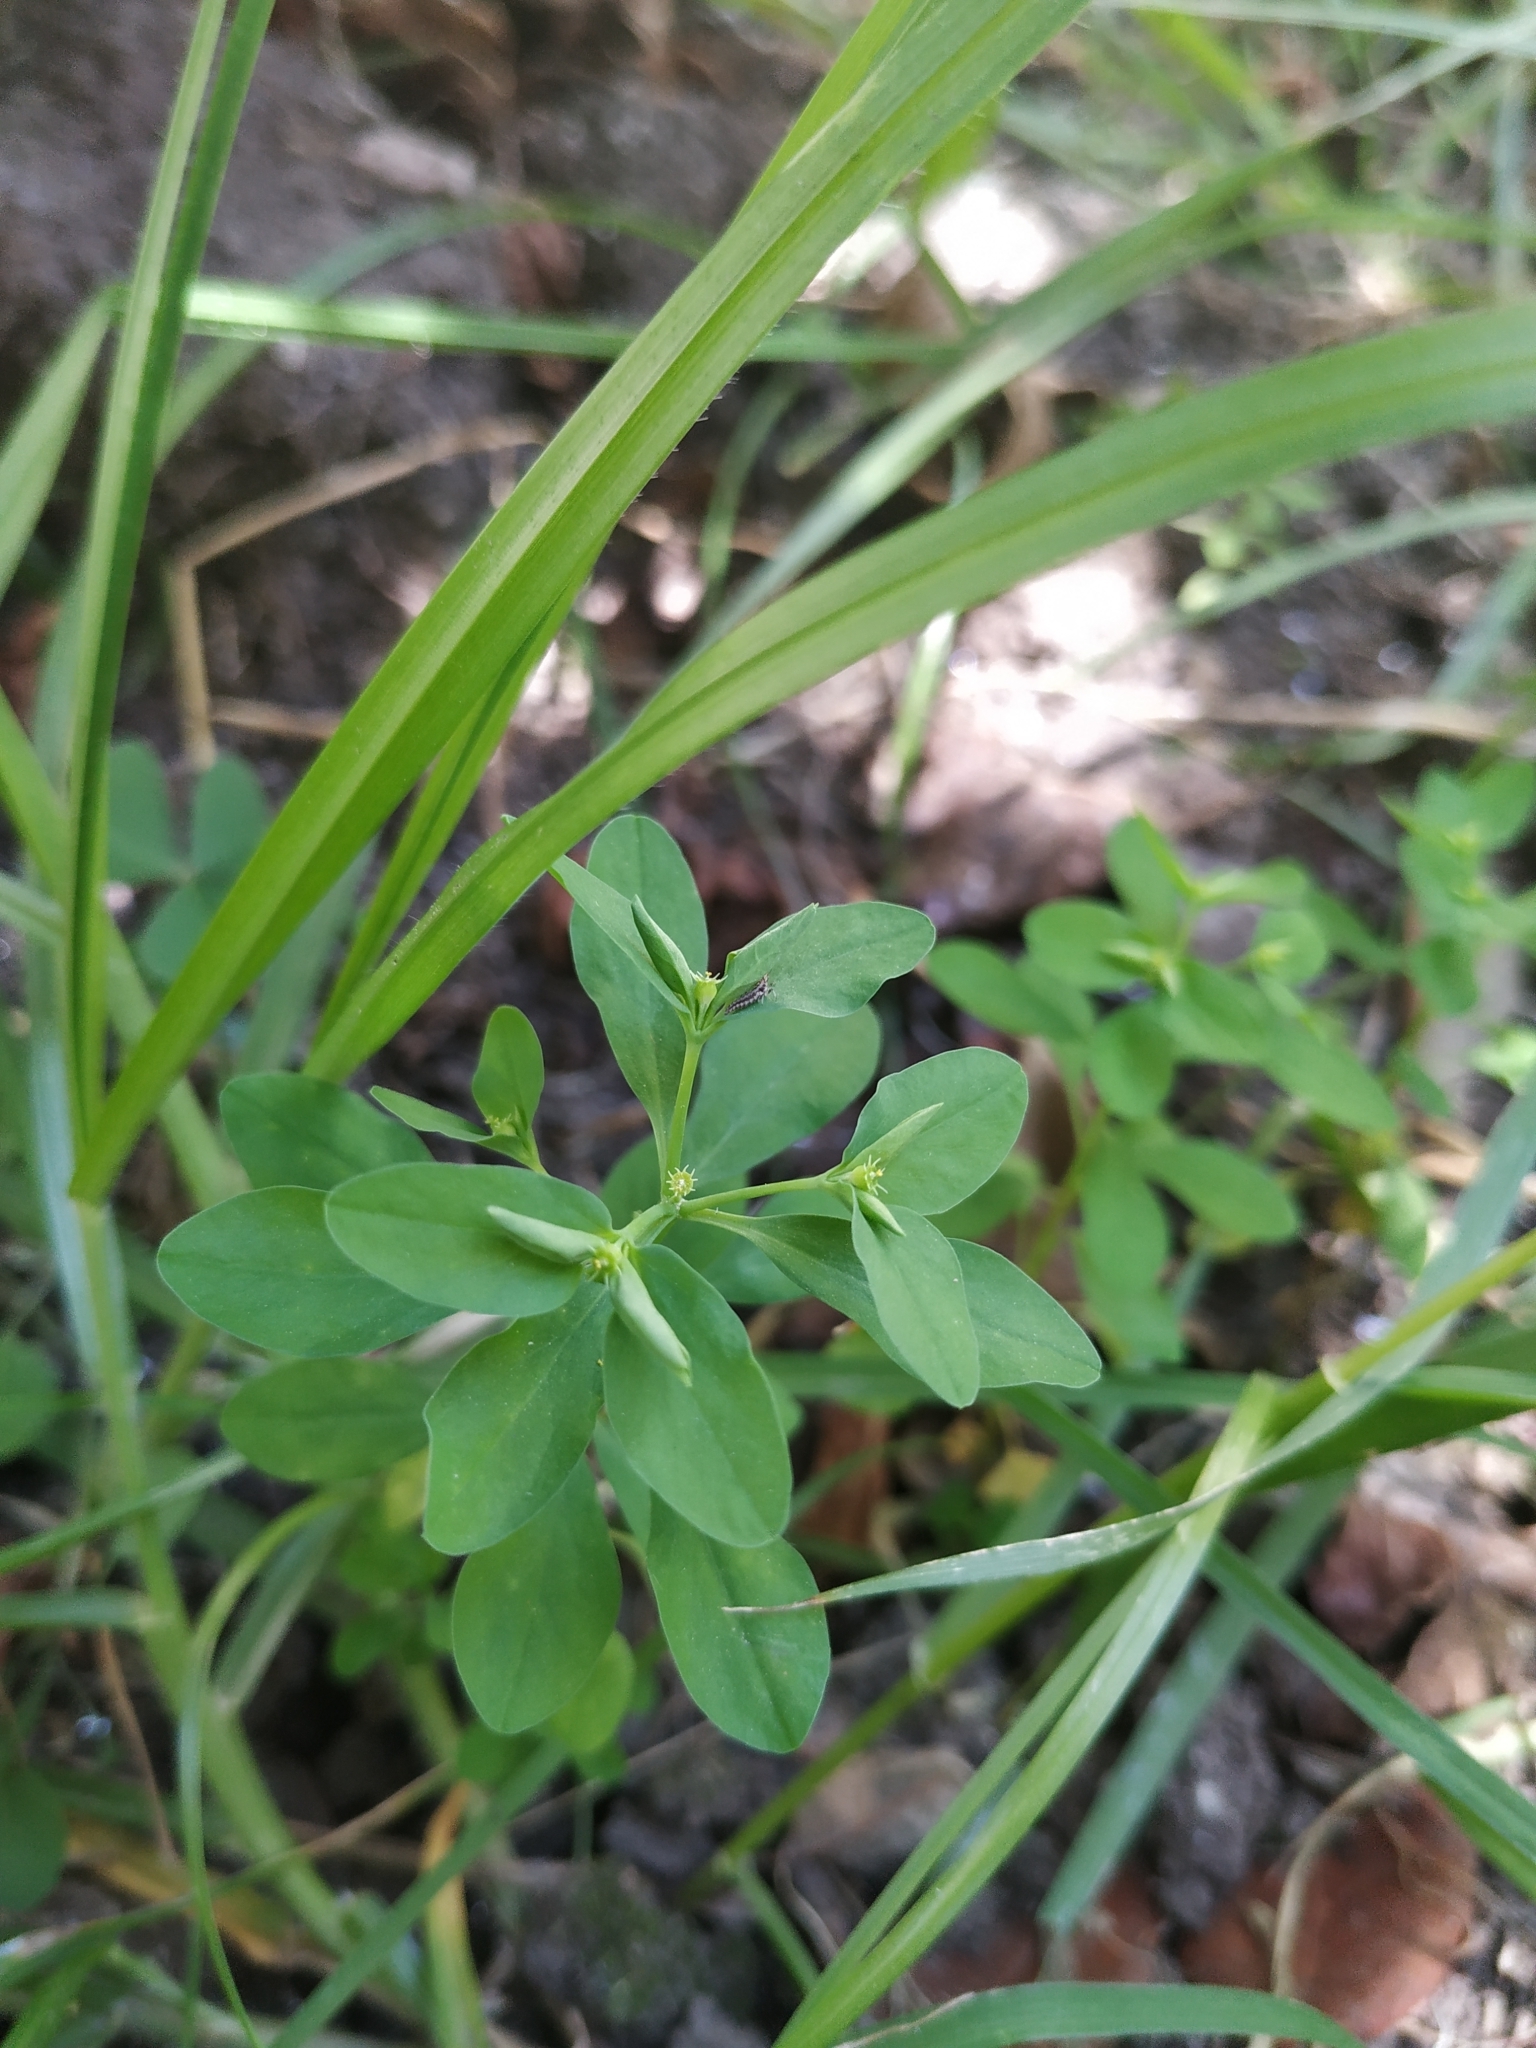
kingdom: Plantae
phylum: Tracheophyta
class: Magnoliopsida
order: Malpighiales
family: Euphorbiaceae
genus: Euphorbia
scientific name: Euphorbia peplus
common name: Petty spurge
